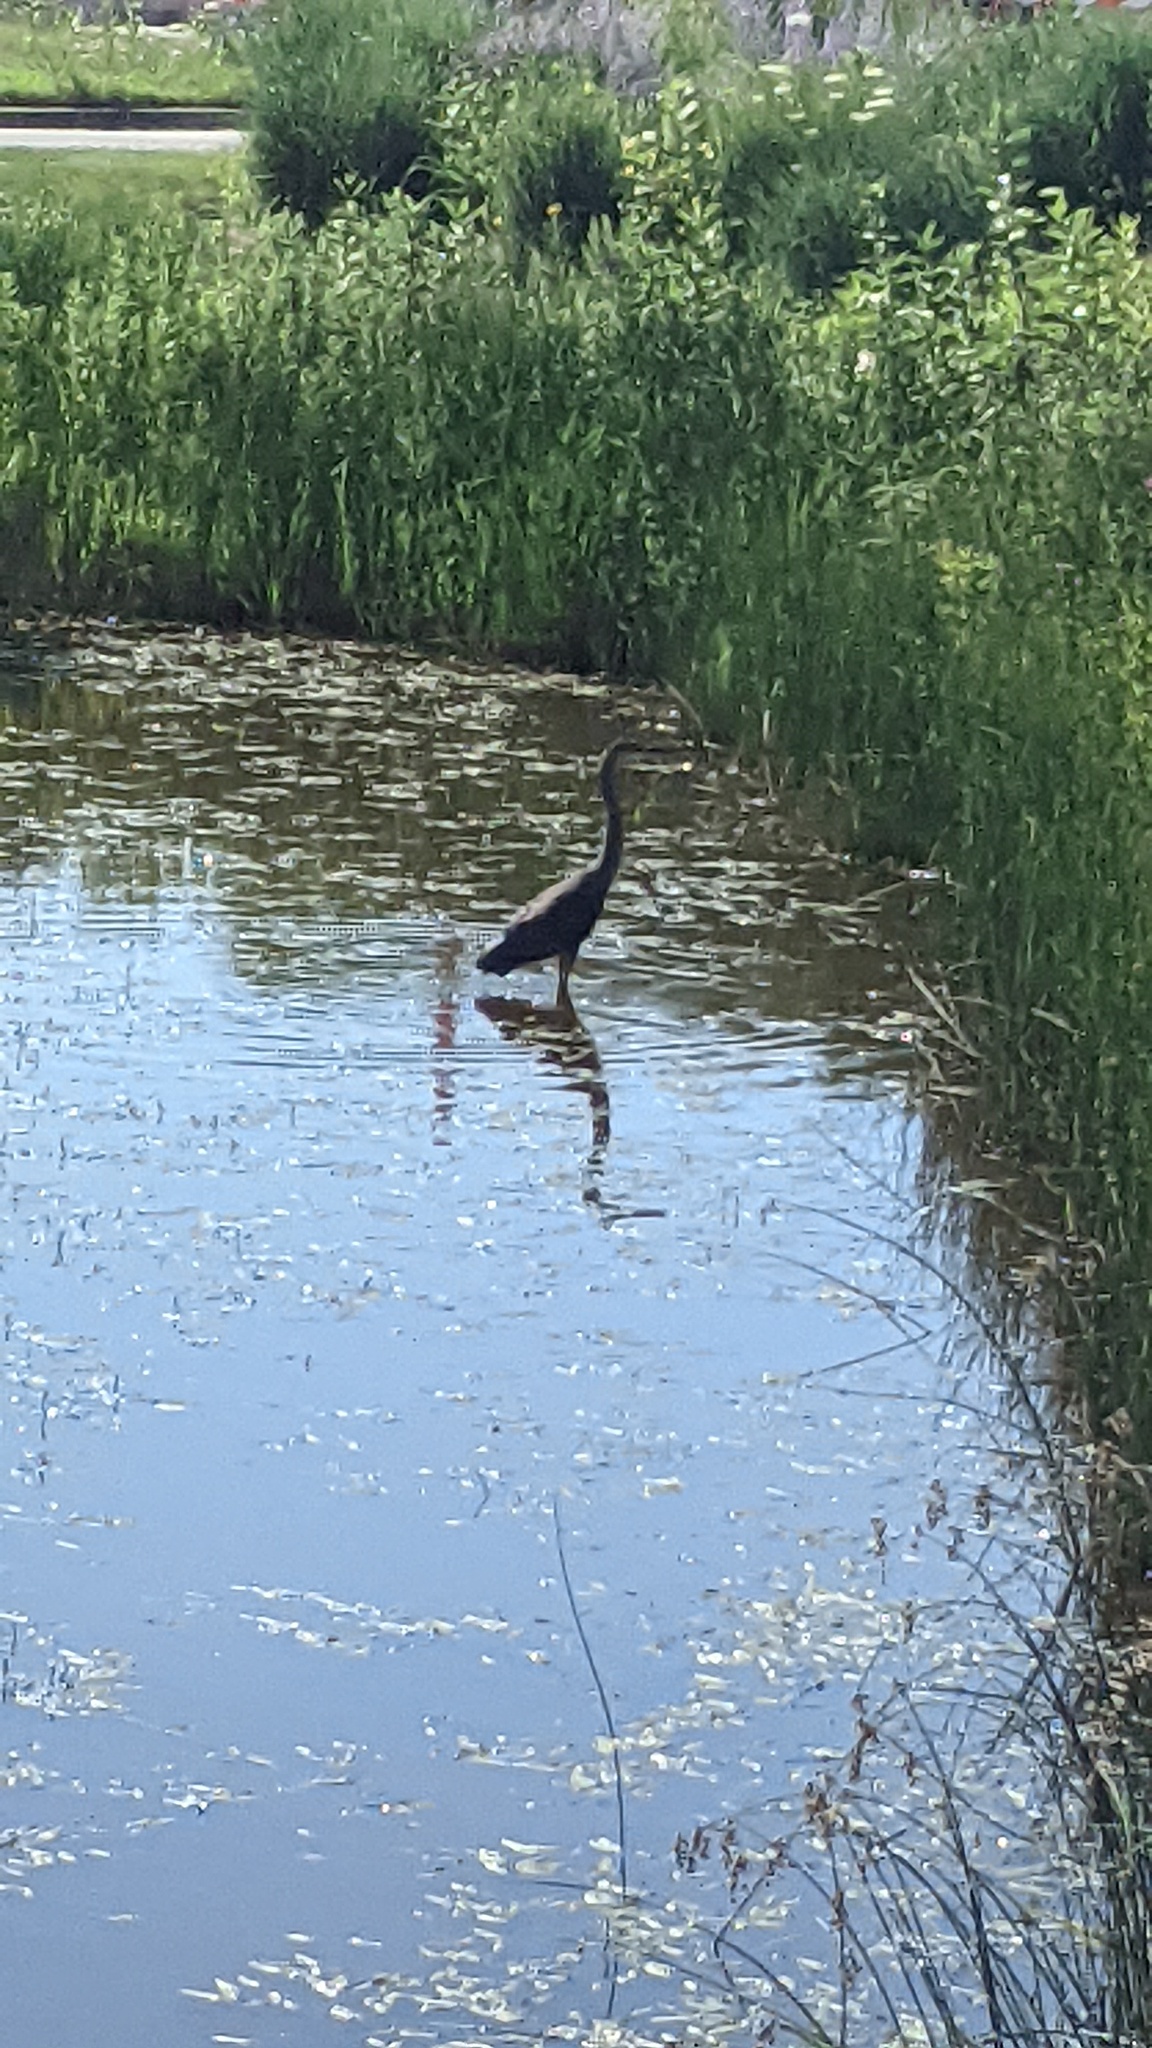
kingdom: Animalia
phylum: Chordata
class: Aves
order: Pelecaniformes
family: Ardeidae
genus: Ardea
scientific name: Ardea herodias
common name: Great blue heron
